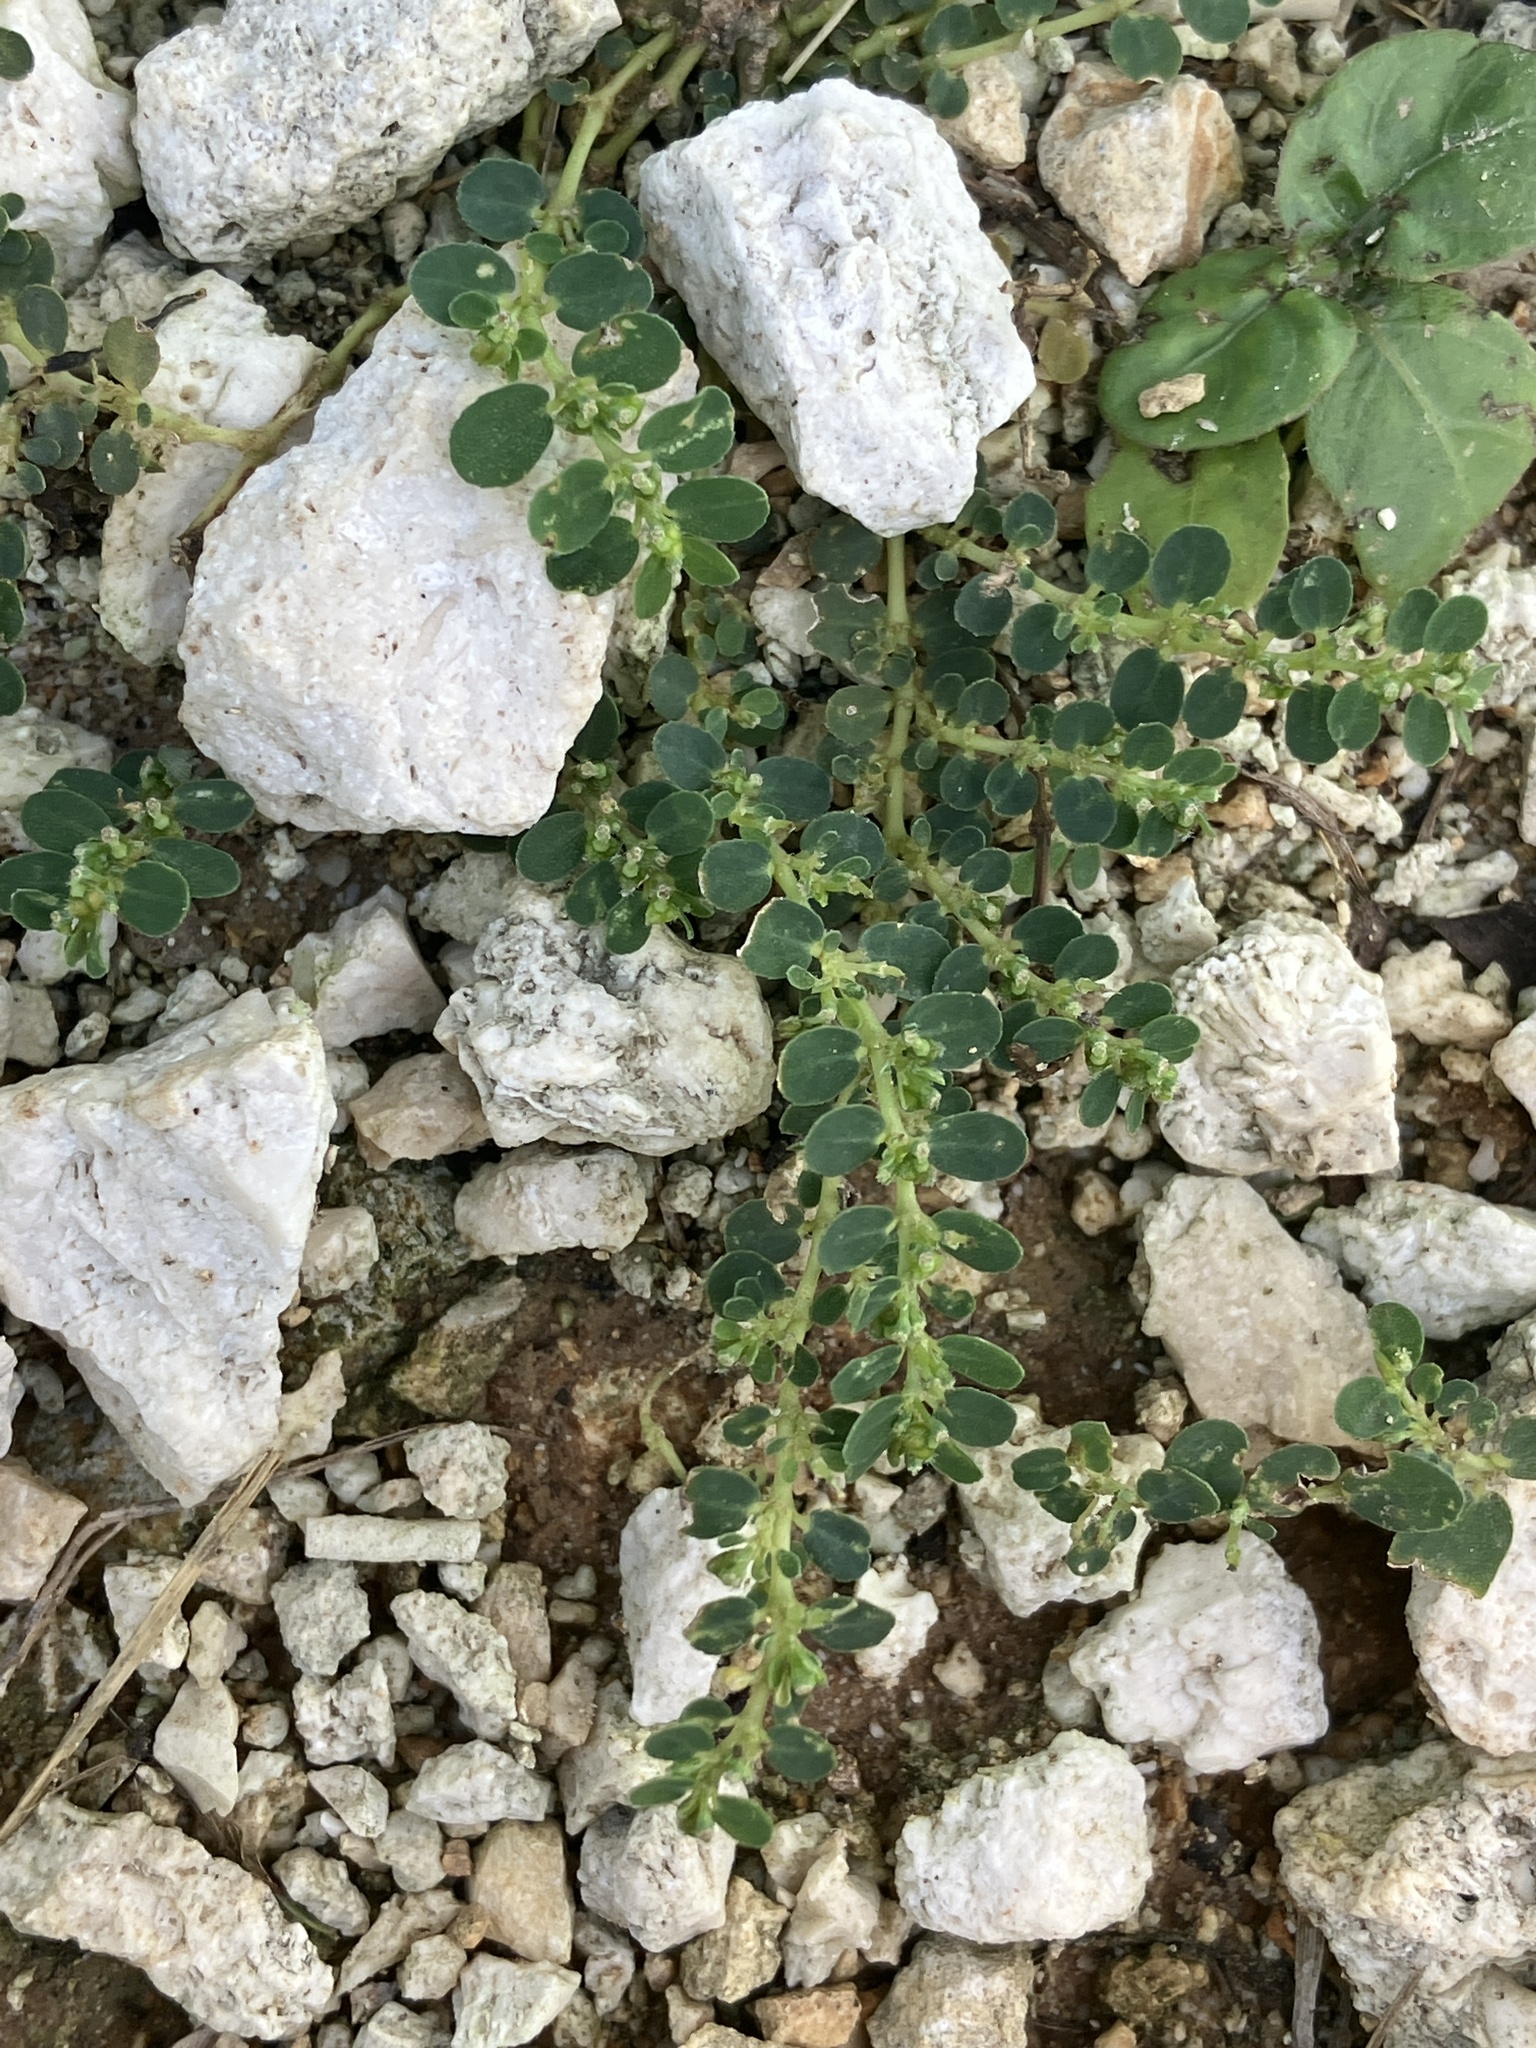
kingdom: Plantae
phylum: Tracheophyta
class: Magnoliopsida
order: Malpighiales
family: Euphorbiaceae
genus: Euphorbia
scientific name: Euphorbia prostrata
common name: Prostrate sandmat
